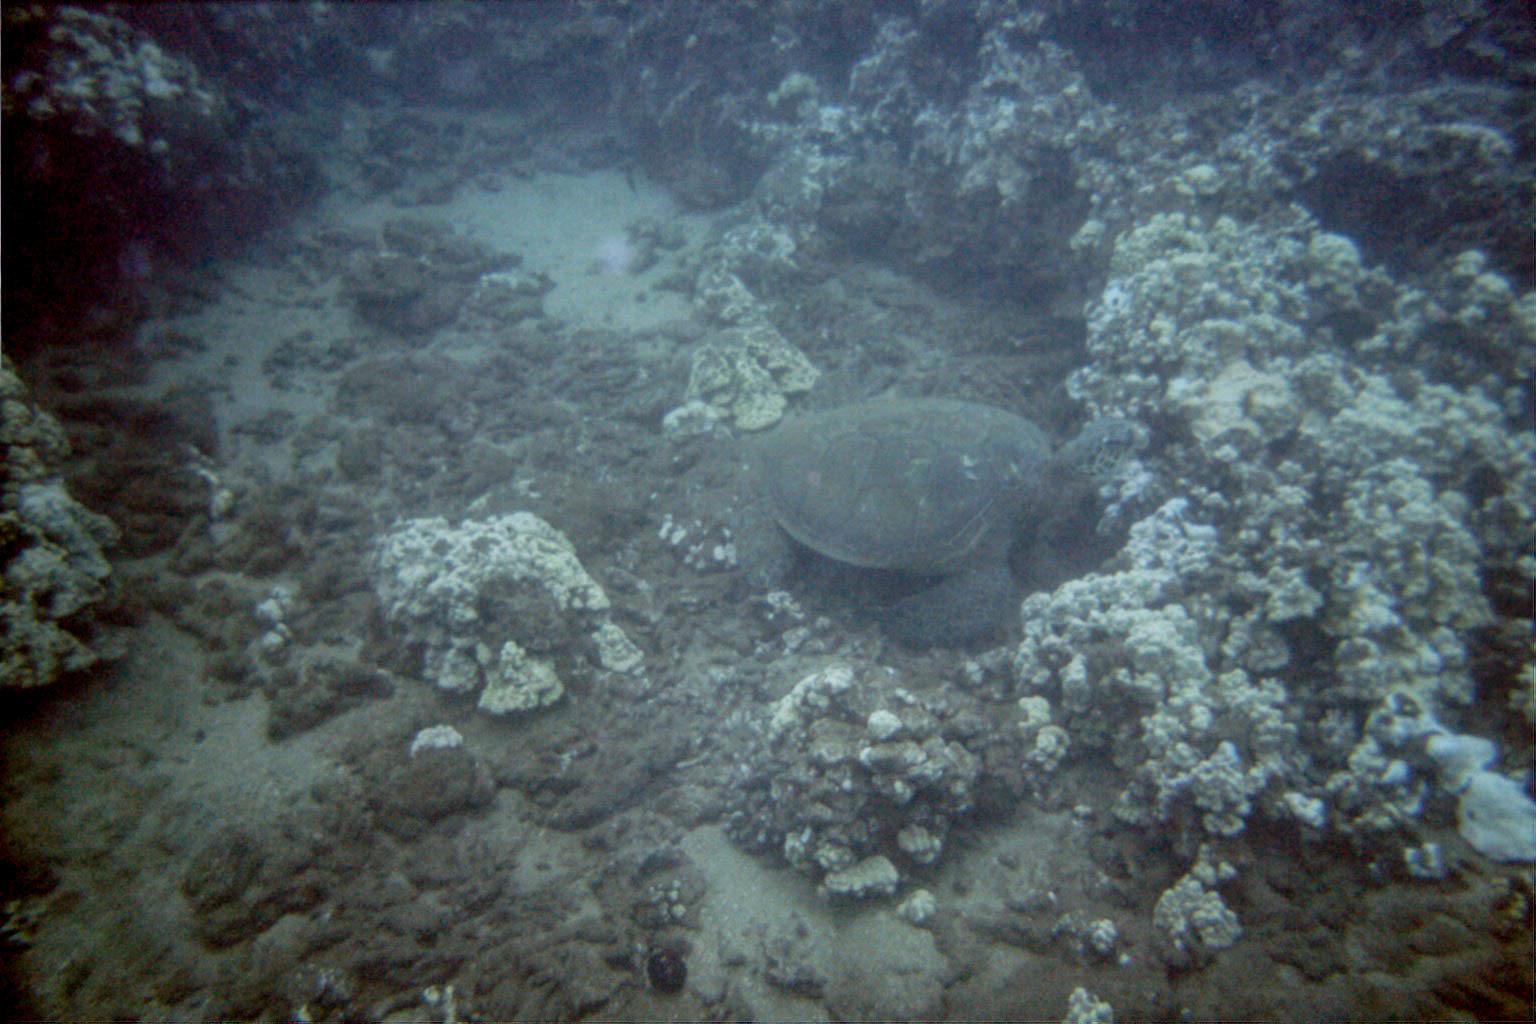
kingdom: Animalia
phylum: Chordata
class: Testudines
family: Cheloniidae
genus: Chelonia
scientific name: Chelonia mydas
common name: Green turtle
